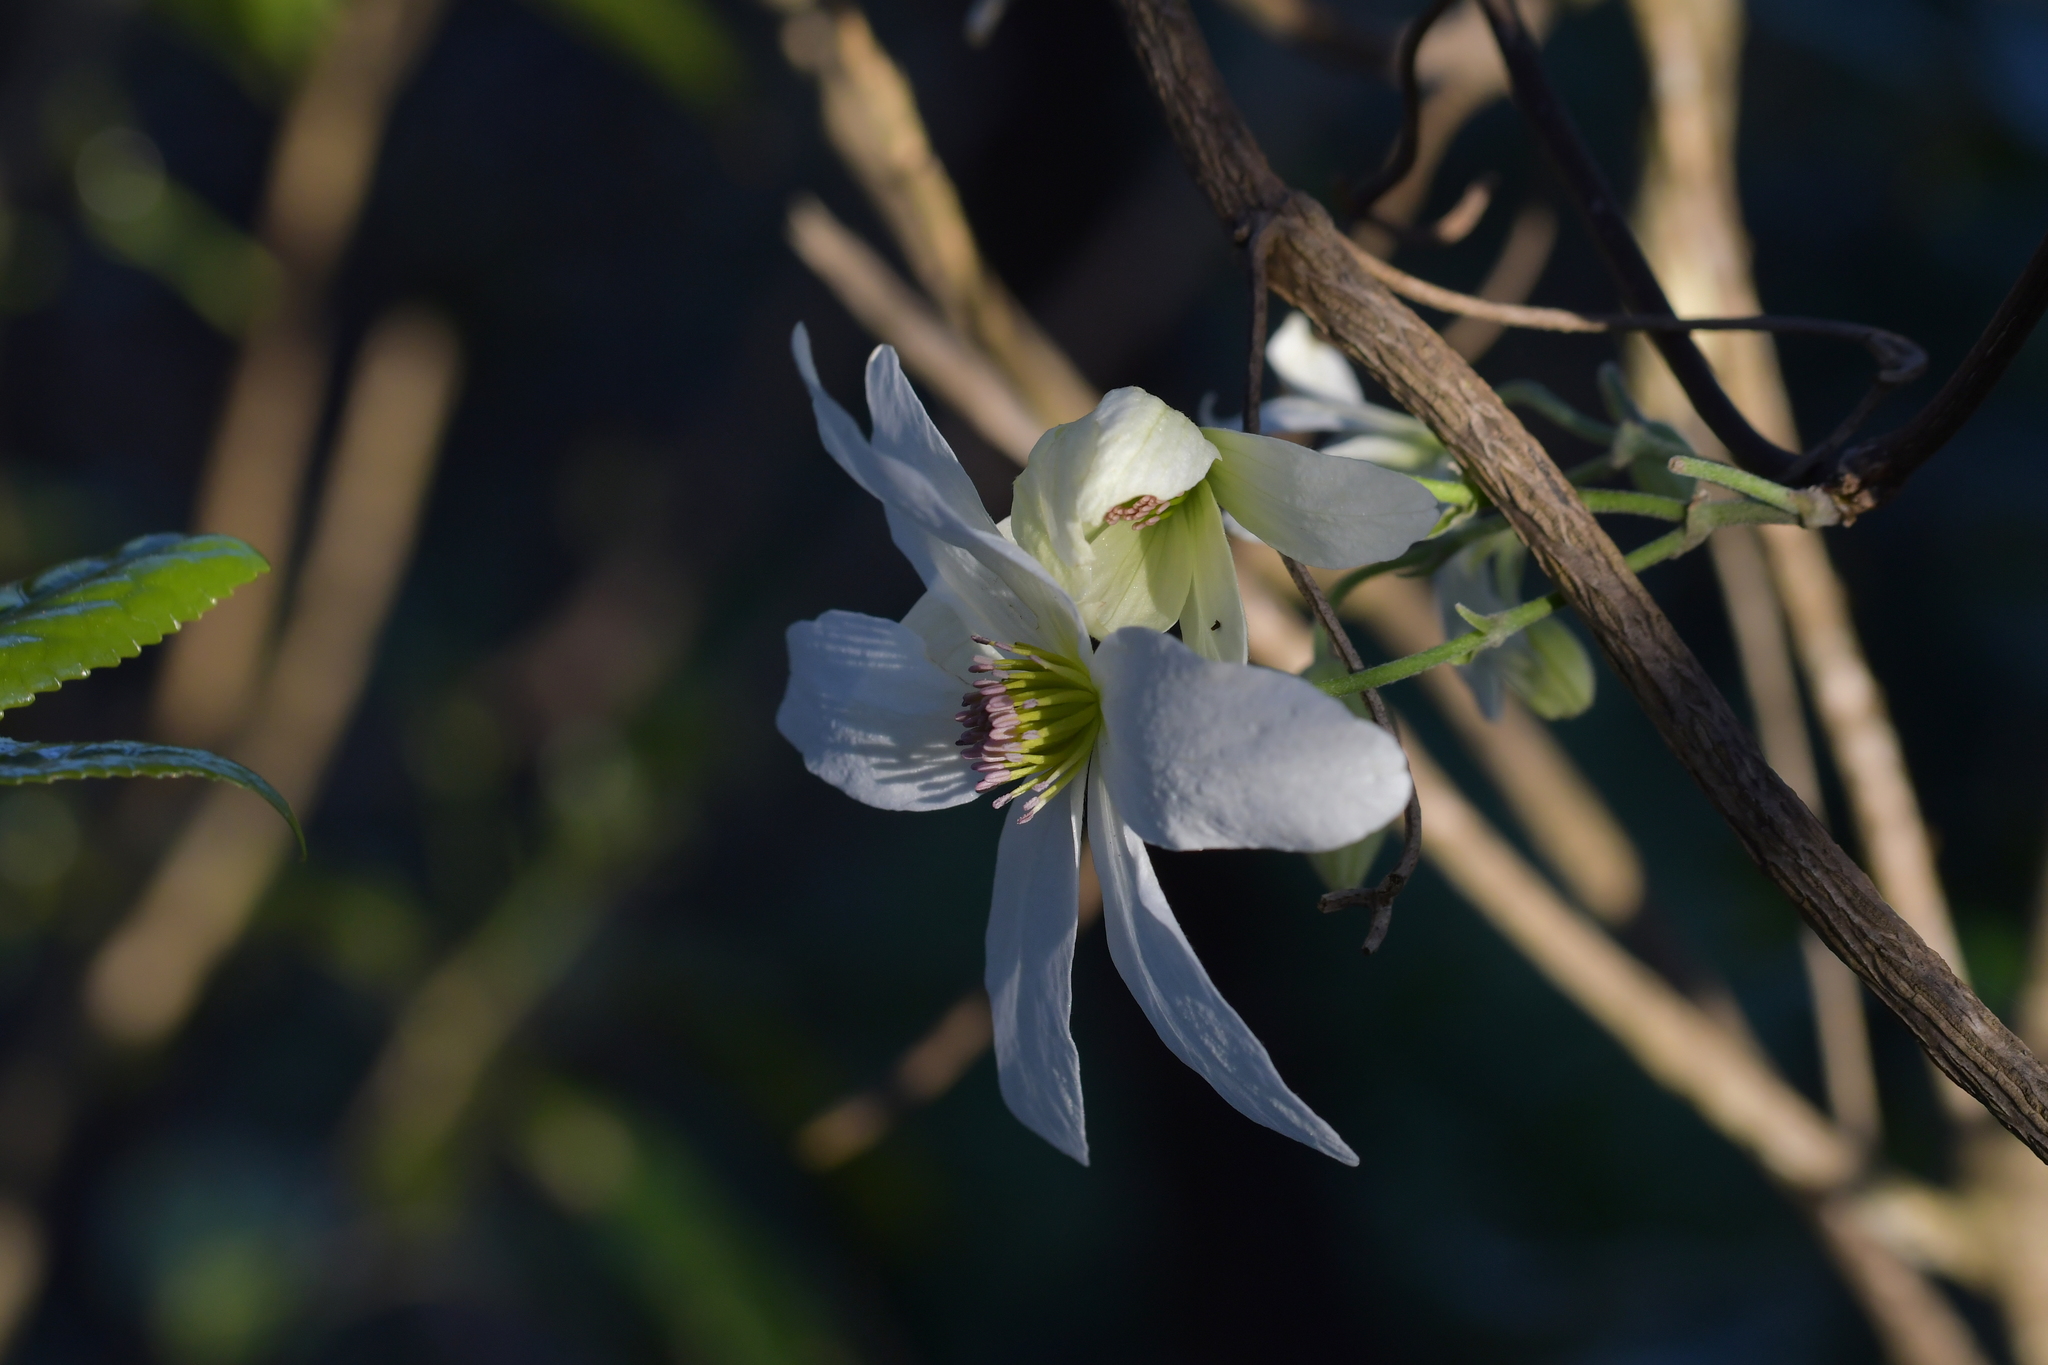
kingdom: Plantae
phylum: Tracheophyta
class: Magnoliopsida
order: Ranunculales
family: Ranunculaceae
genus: Clematis
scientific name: Clematis paniculata
